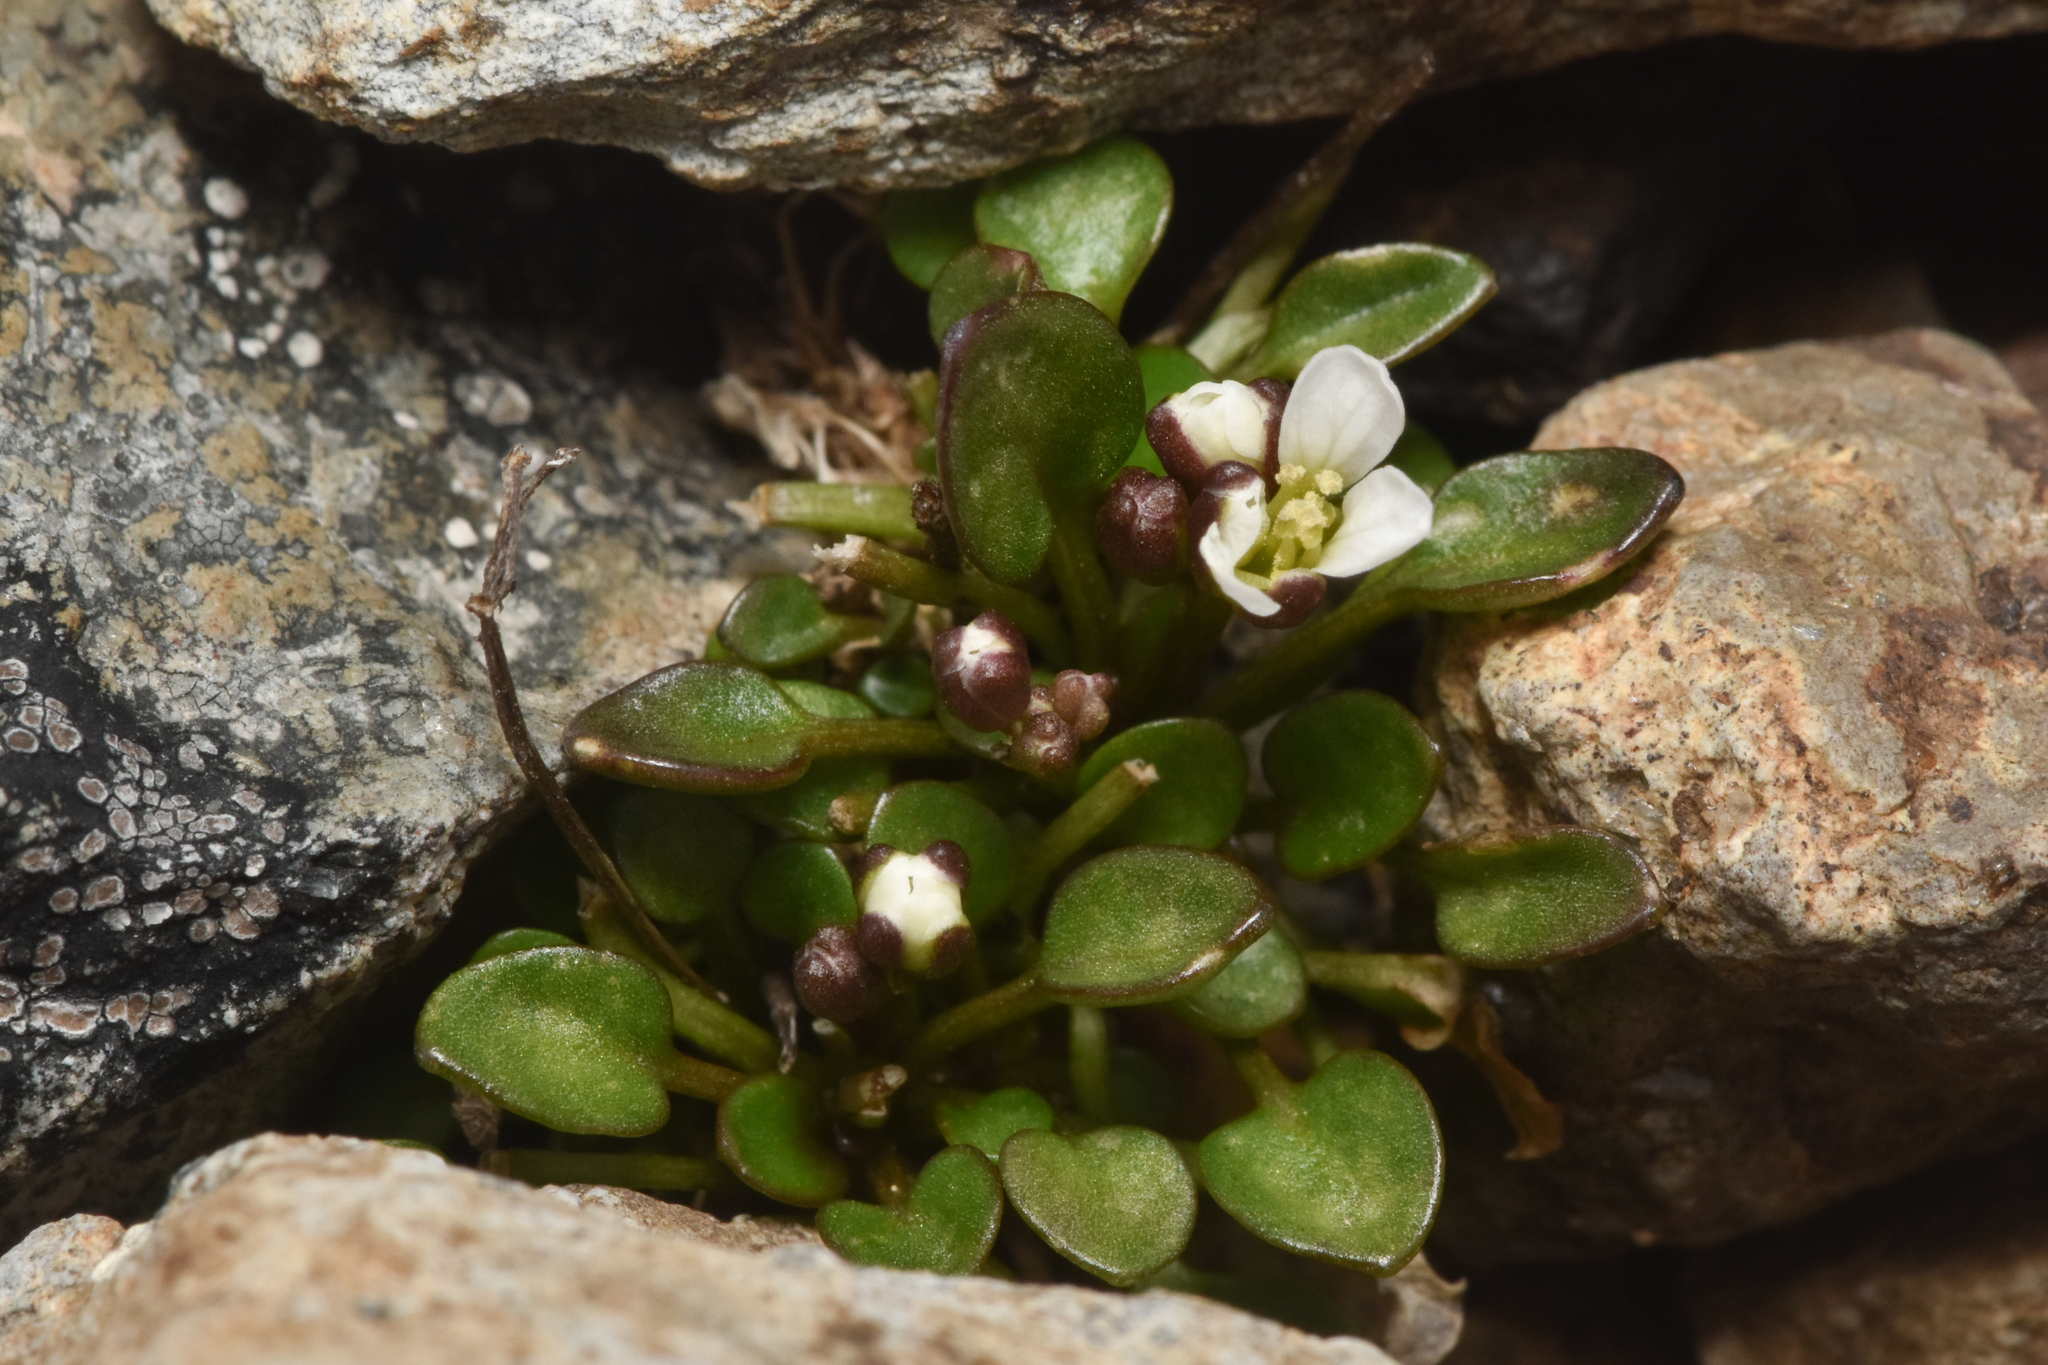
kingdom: Plantae
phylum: Tracheophyta
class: Magnoliopsida
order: Brassicales
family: Brassicaceae
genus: Cardamine
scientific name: Cardamine bellidifolia
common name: Alpine bittercress
